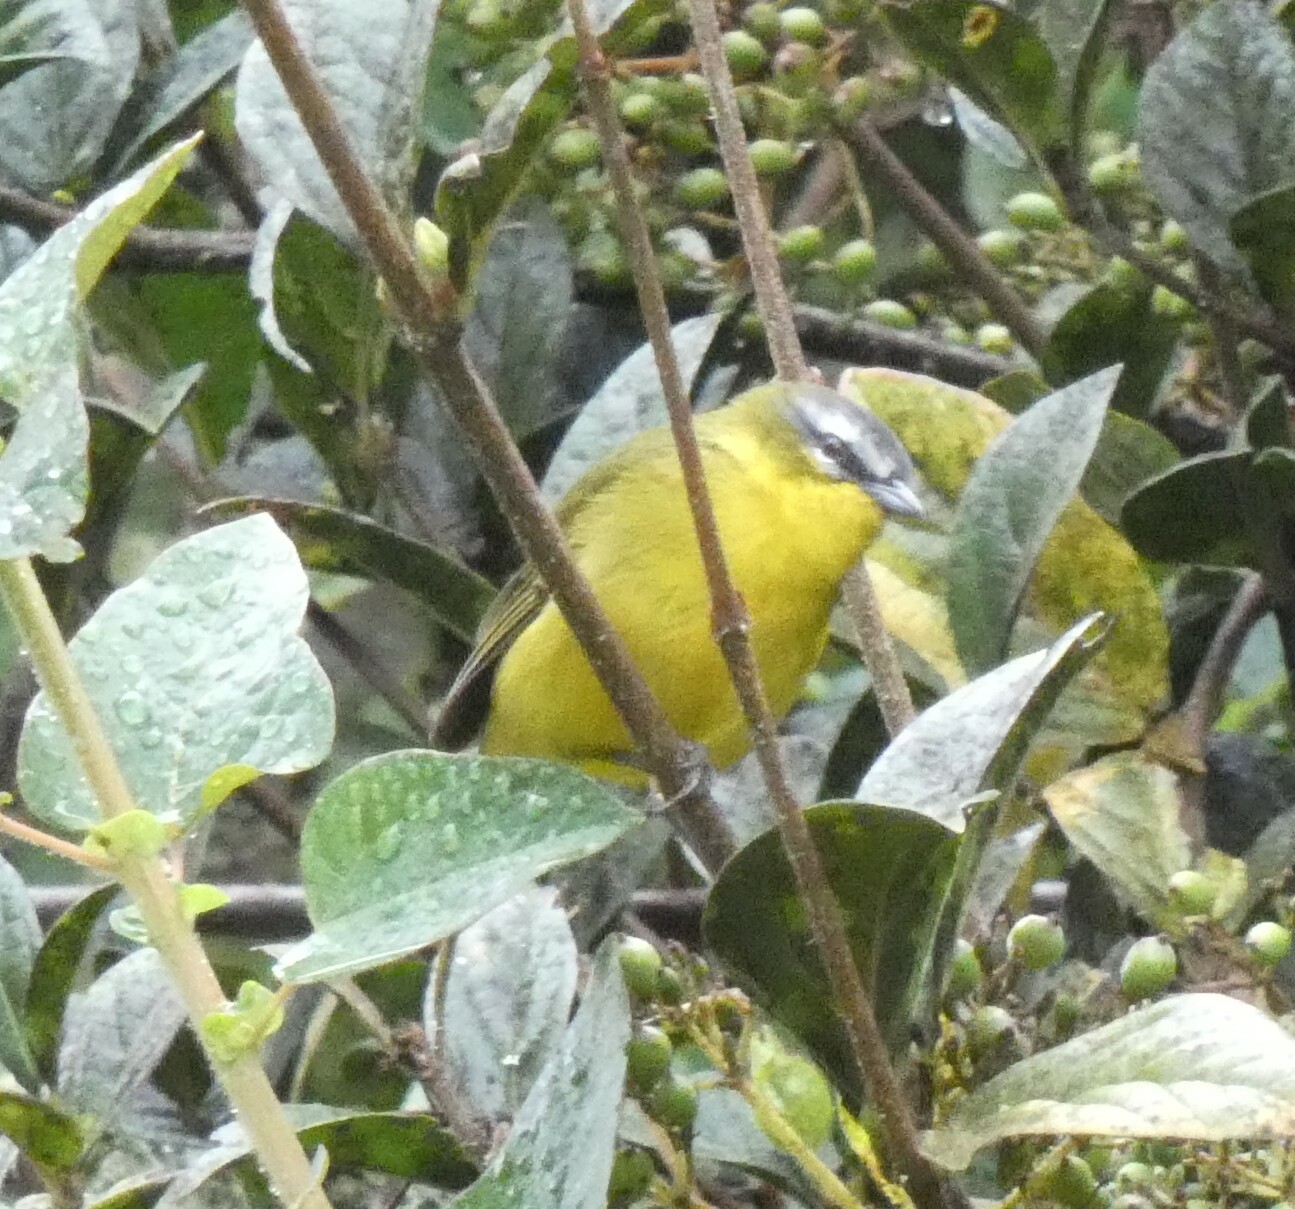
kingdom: Animalia
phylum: Chordata
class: Aves
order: Passeriformes
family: Thraupidae
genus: Thlypopsis
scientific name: Thlypopsis superciliaris
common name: Superciliaried hemispingus
